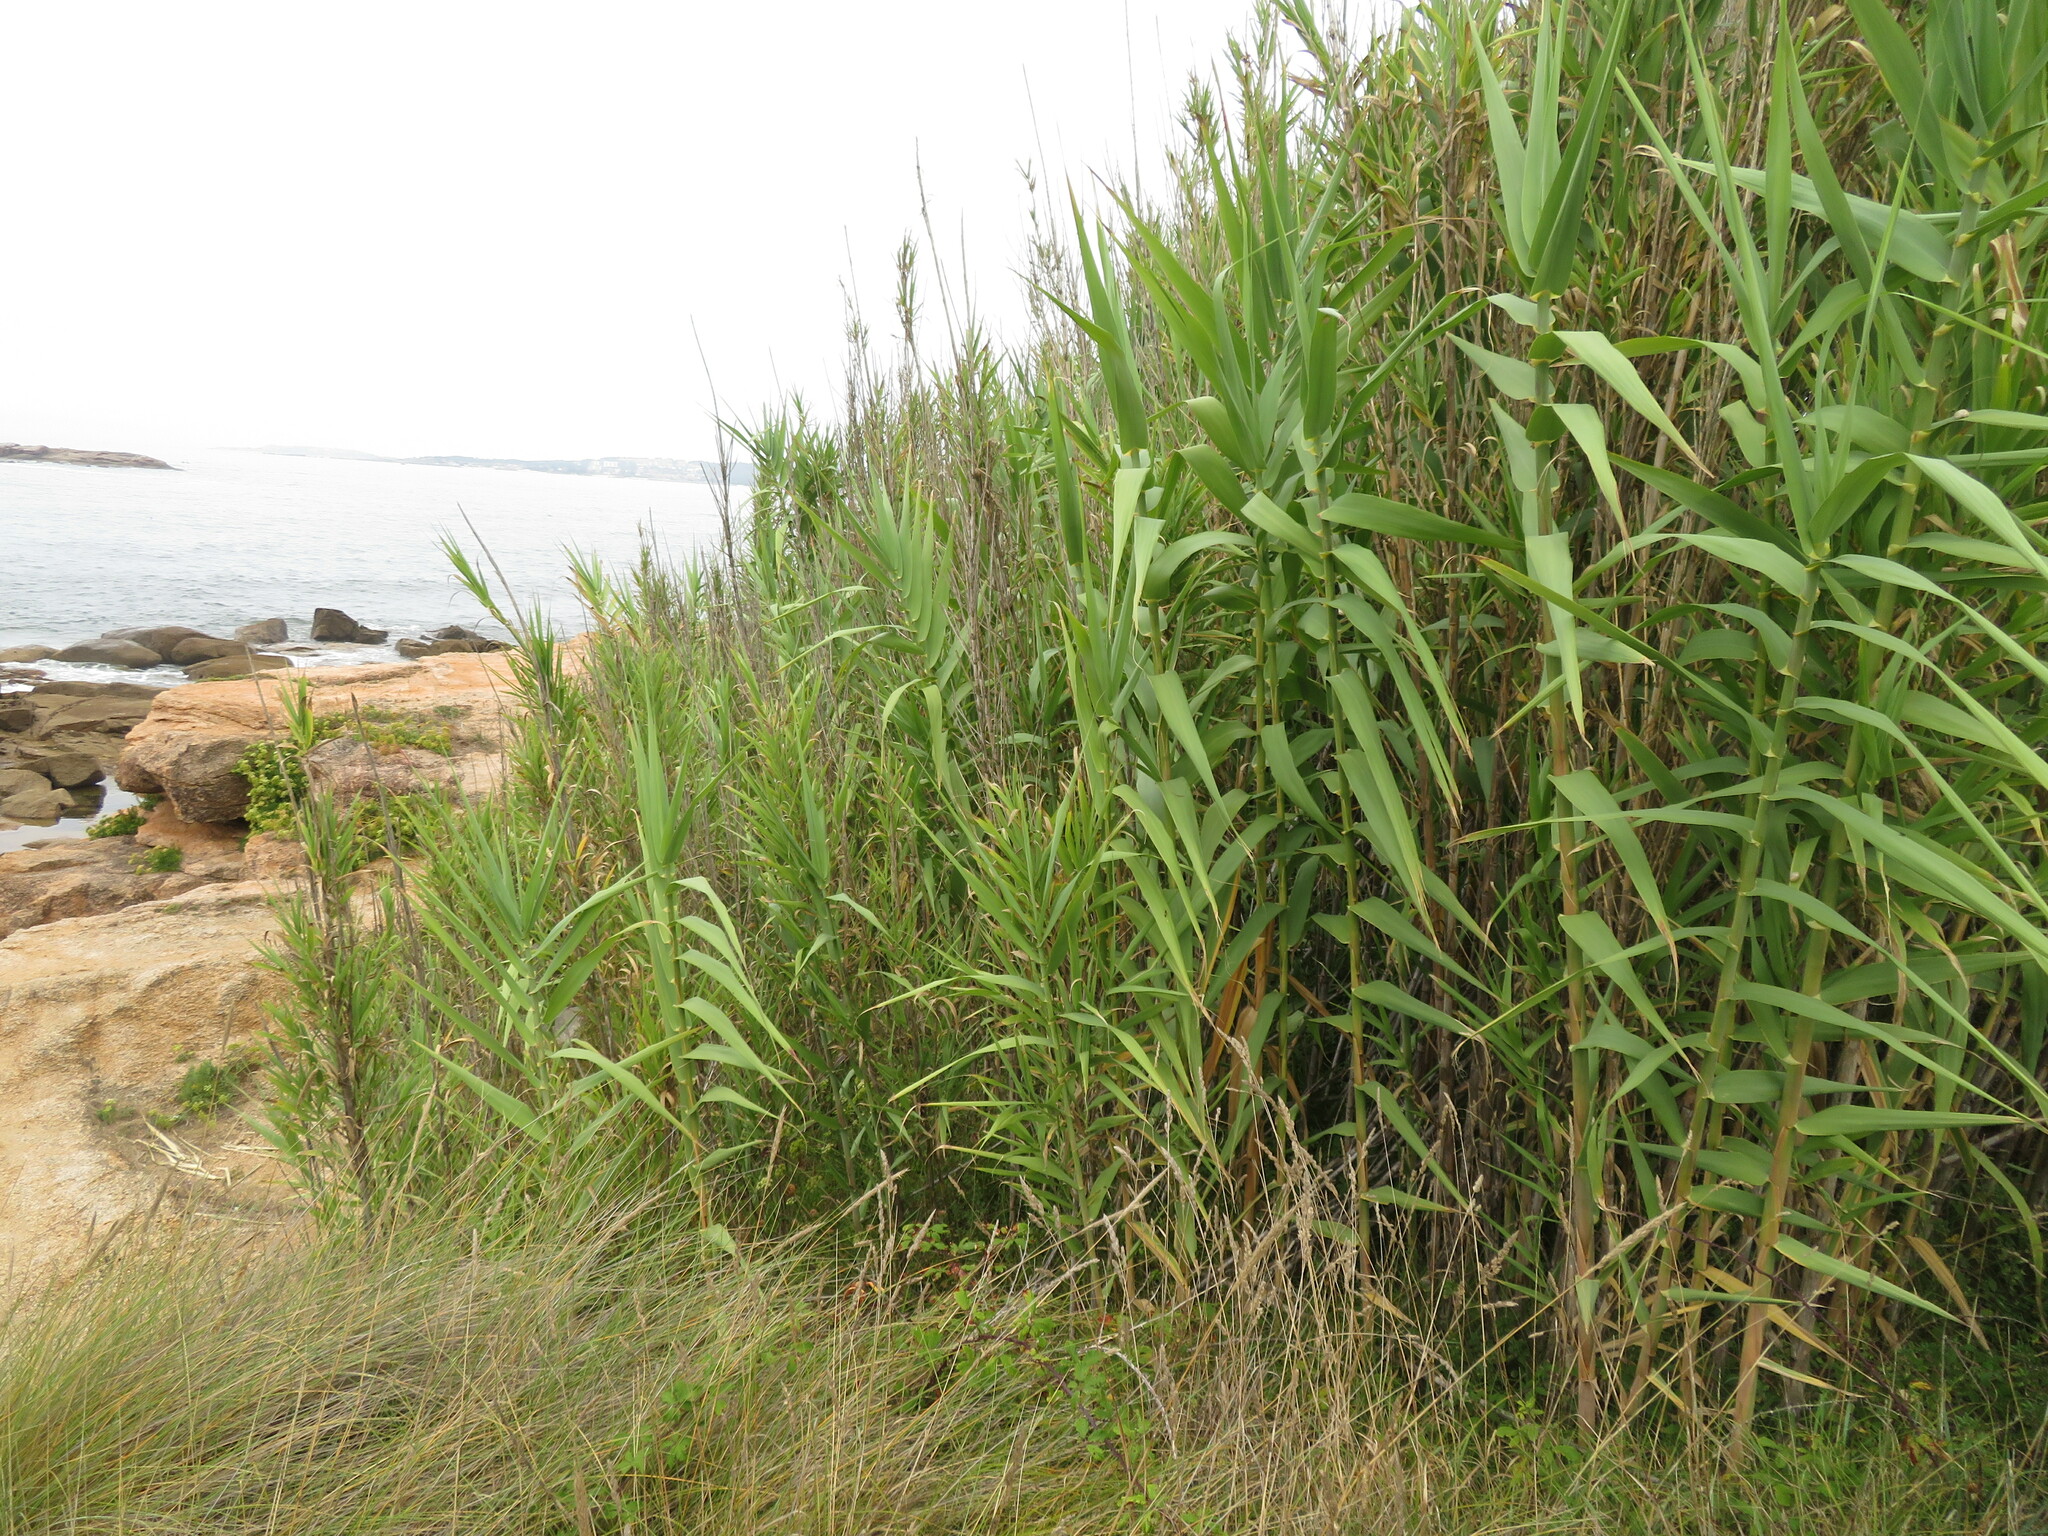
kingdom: Plantae
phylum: Tracheophyta
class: Liliopsida
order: Poales
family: Poaceae
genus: Arundo
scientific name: Arundo donax
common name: Giant reed
